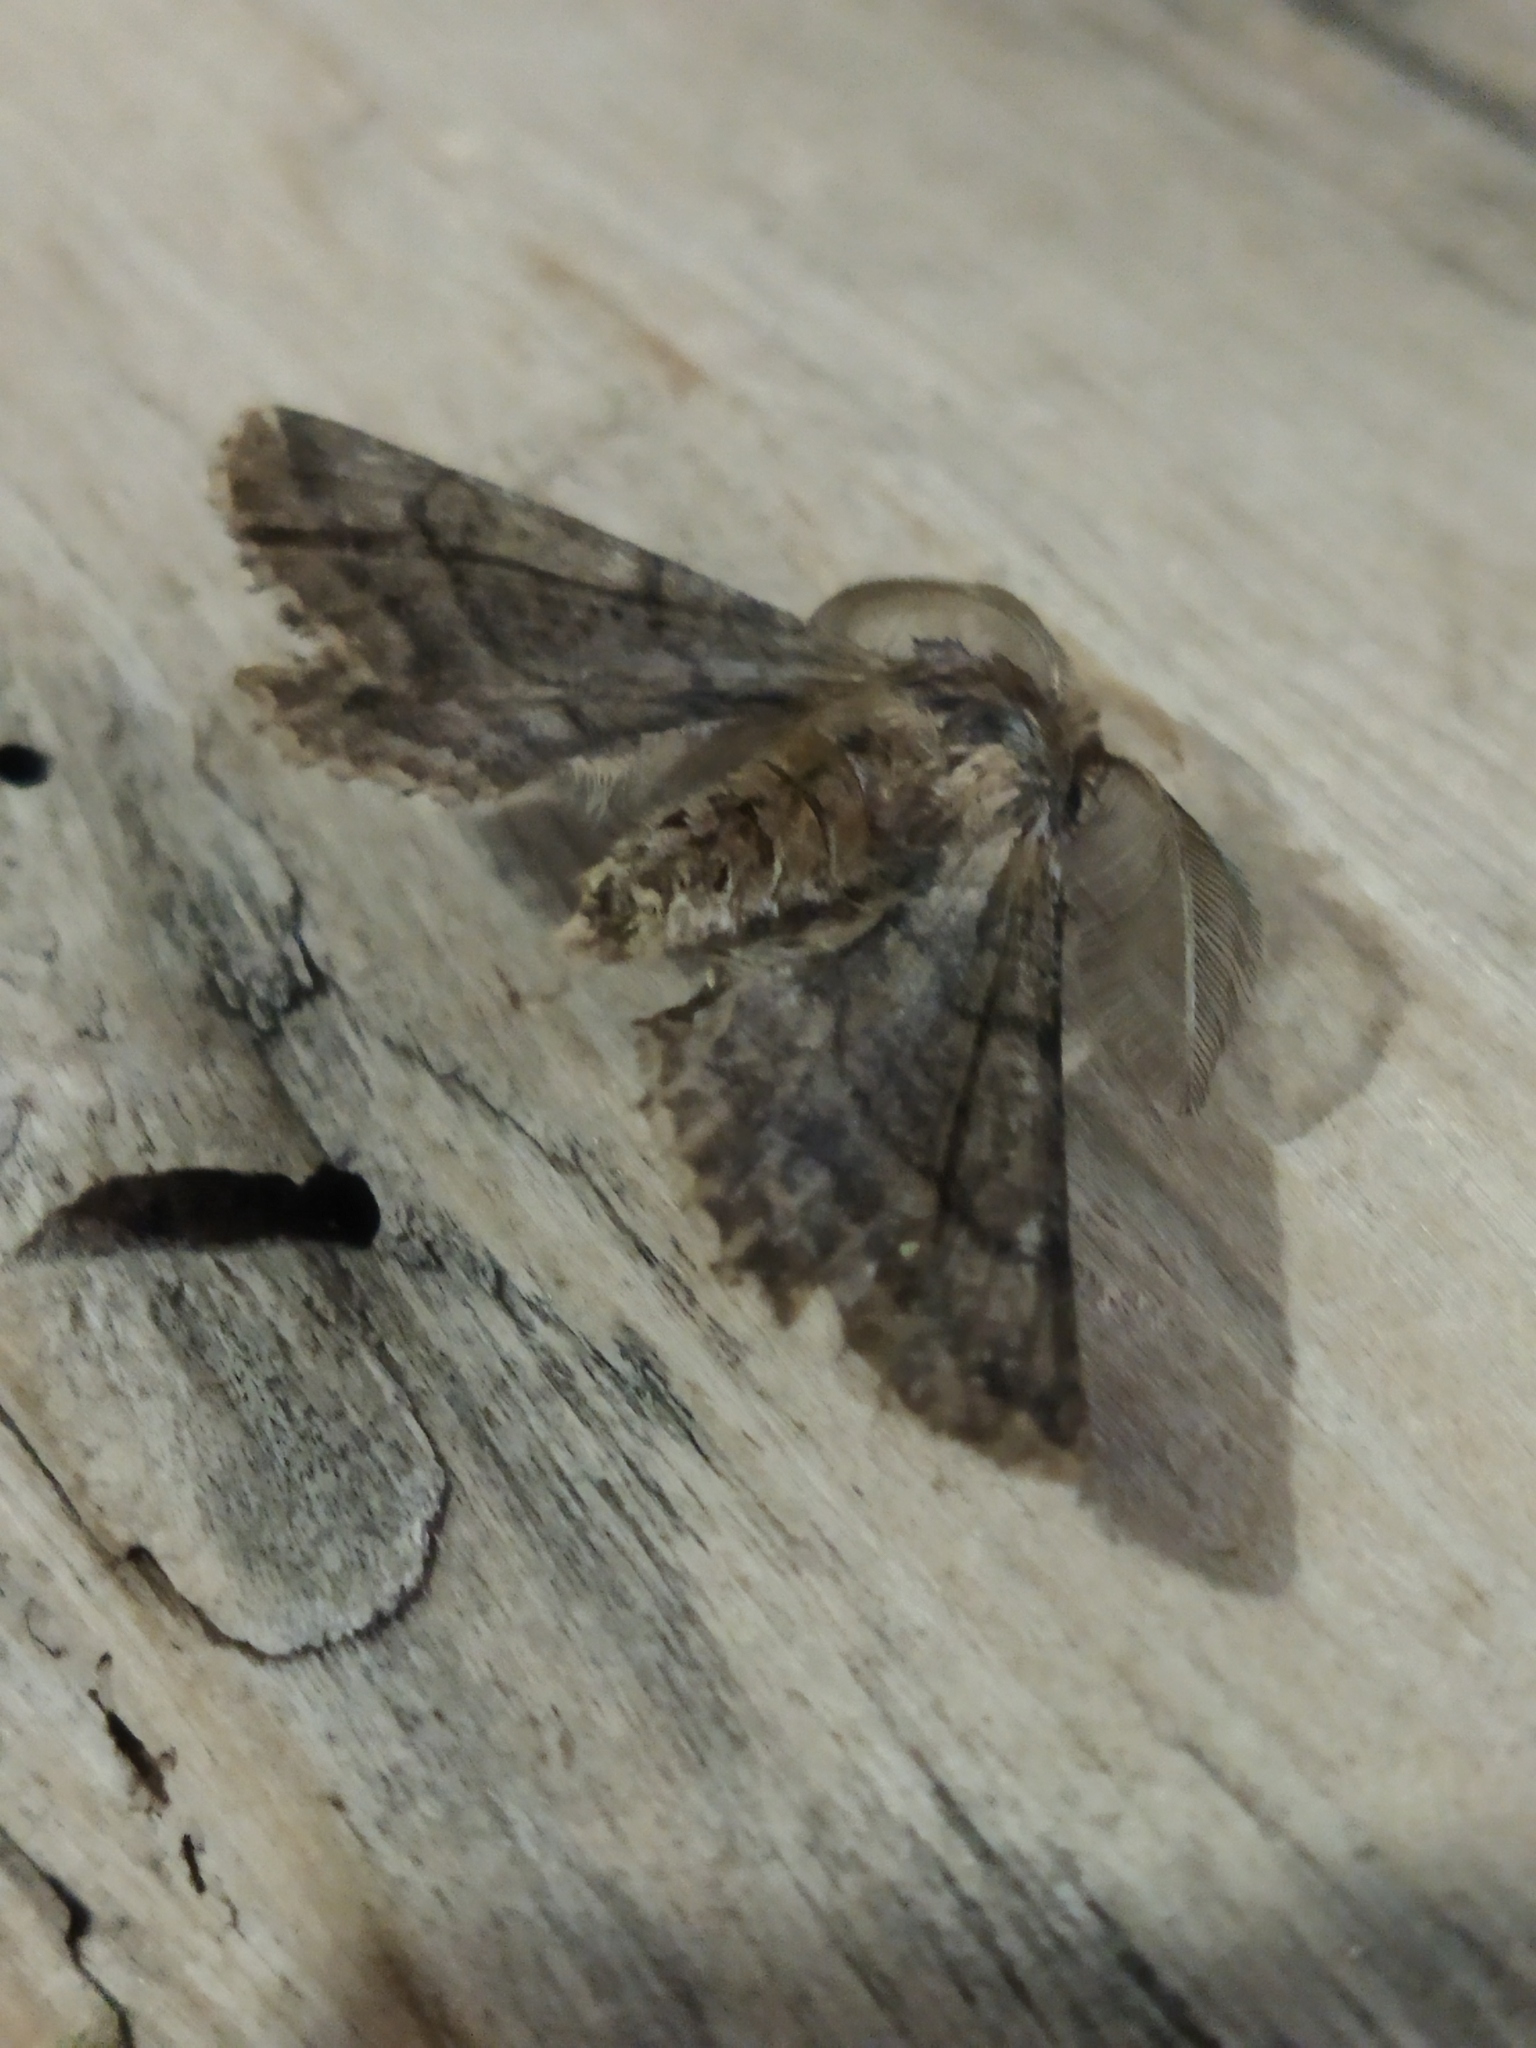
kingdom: Animalia
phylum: Arthropoda
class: Insecta
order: Lepidoptera
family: Geometridae
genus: Apochima
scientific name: Apochima flabellaria
